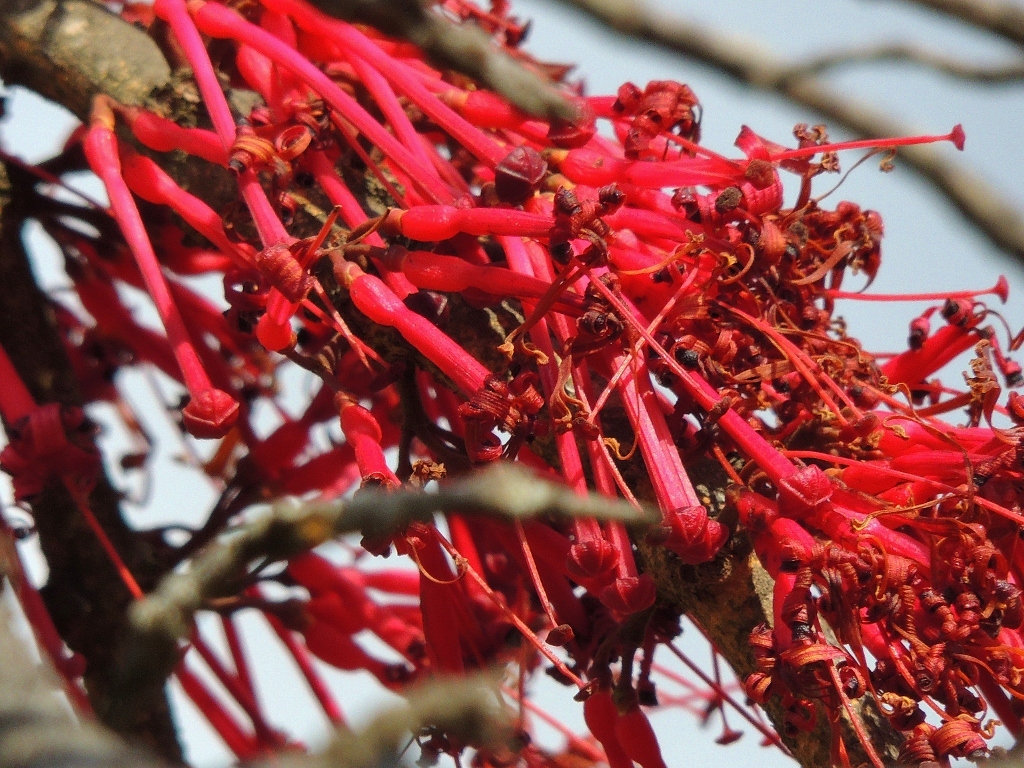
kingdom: Plantae
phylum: Tracheophyta
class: Magnoliopsida
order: Santalales
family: Loranthaceae
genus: Globimetula
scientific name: Globimetula mweroensis
